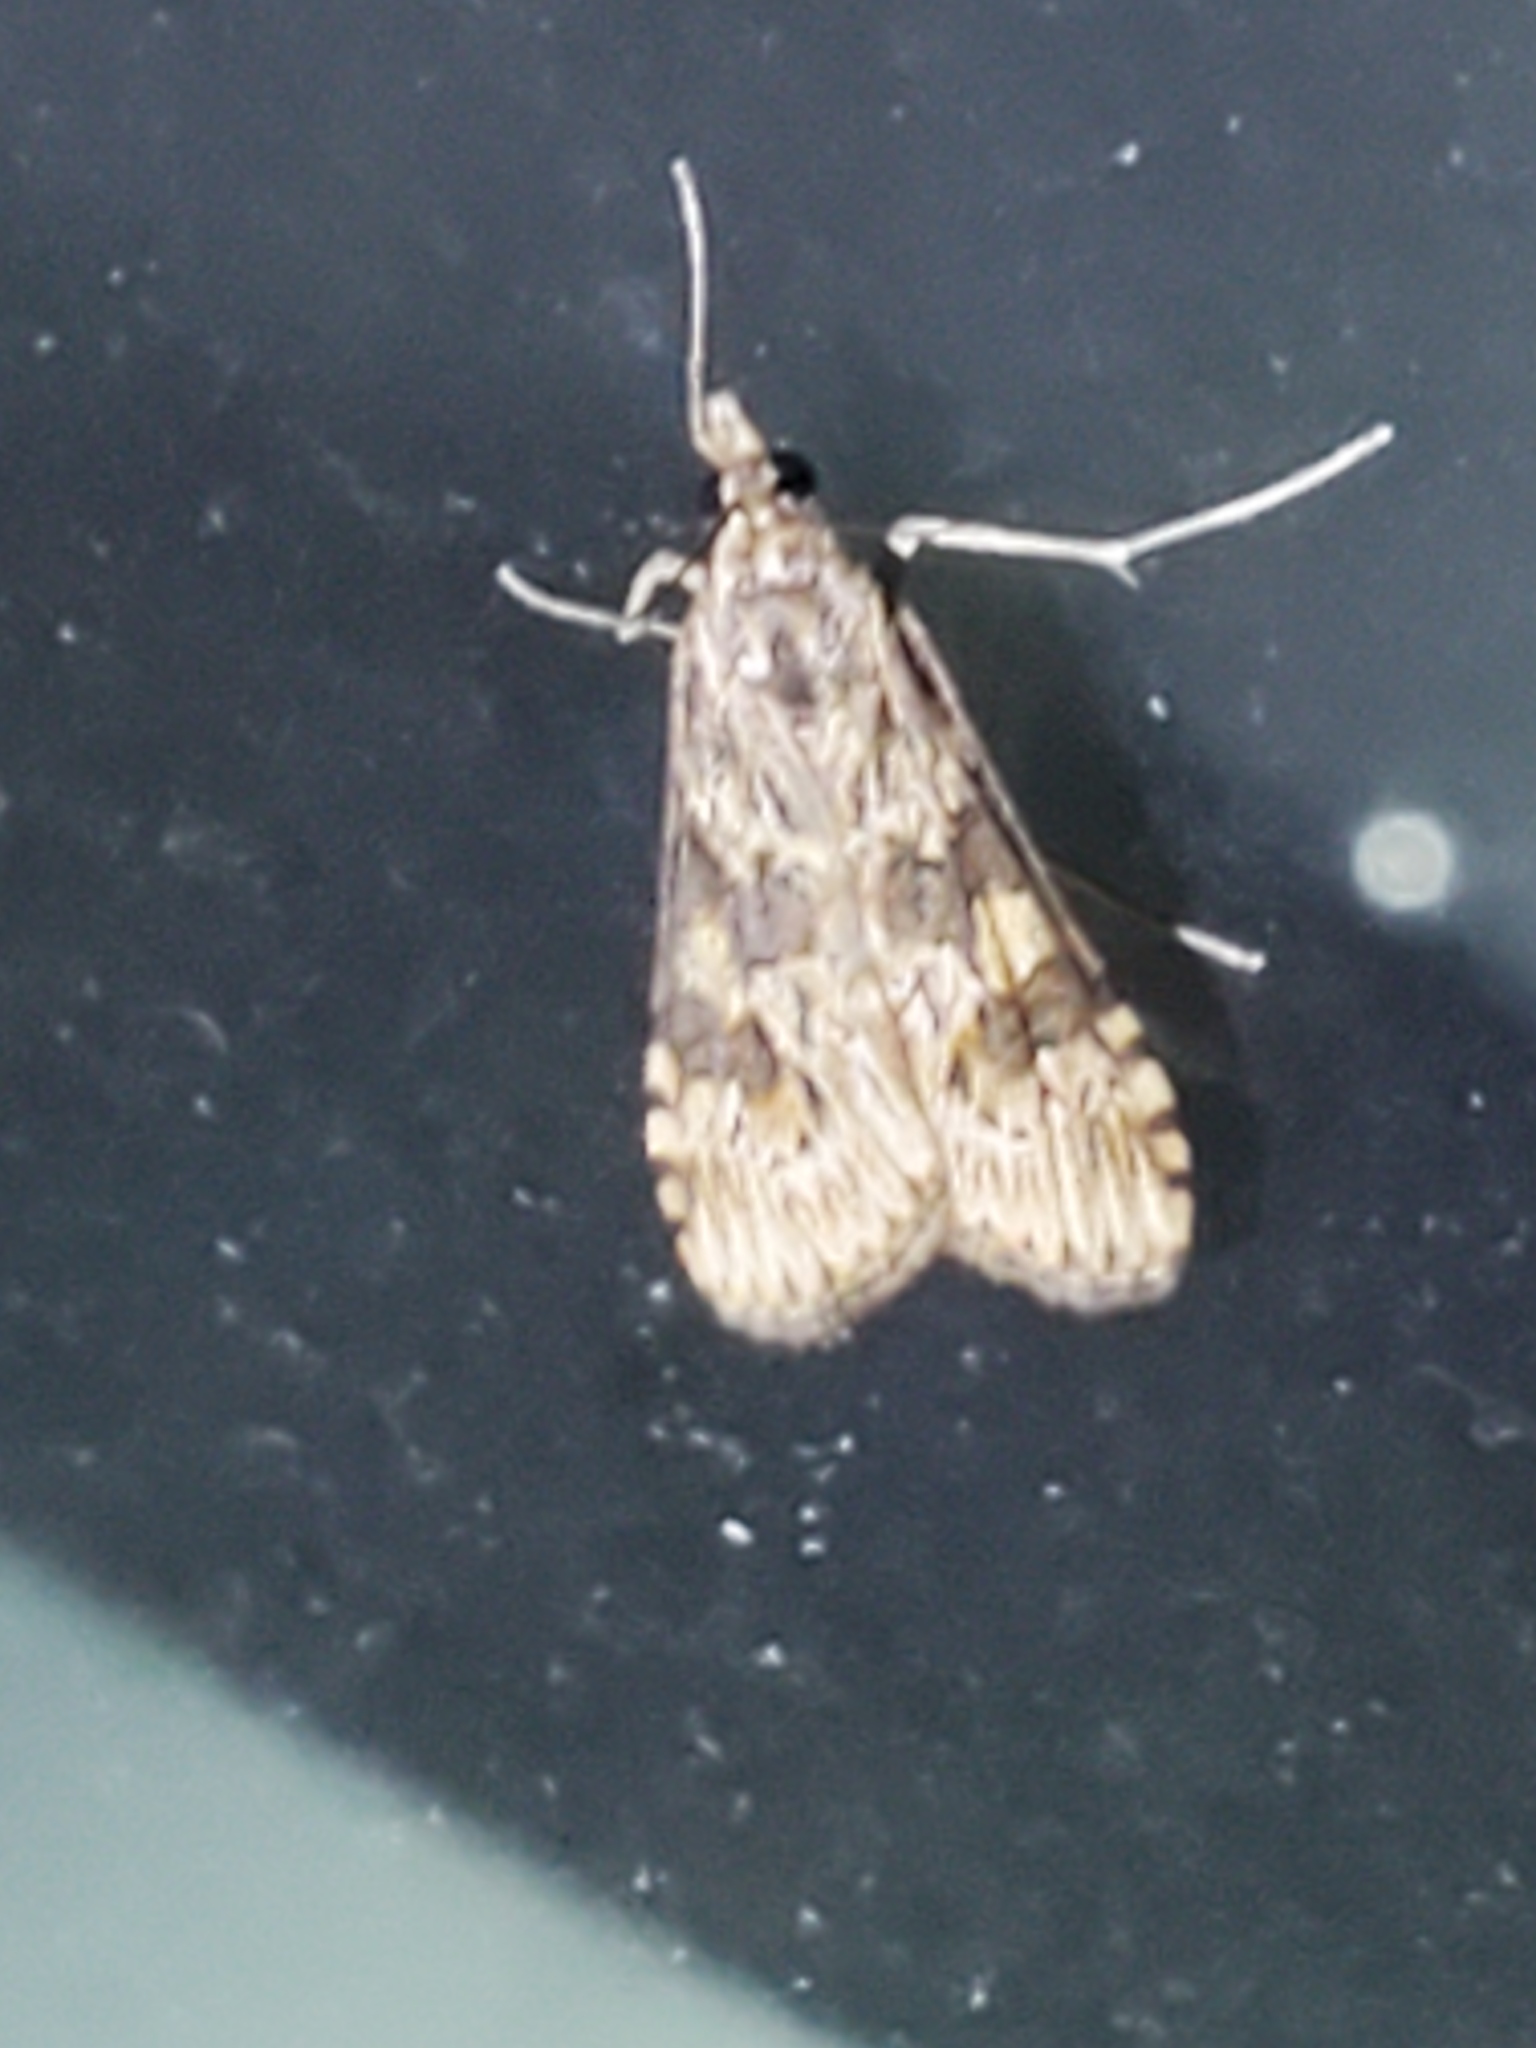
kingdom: Animalia
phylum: Arthropoda
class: Insecta
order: Lepidoptera
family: Crambidae
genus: Nomophila
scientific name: Nomophila nearctica
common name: American rush veneer
